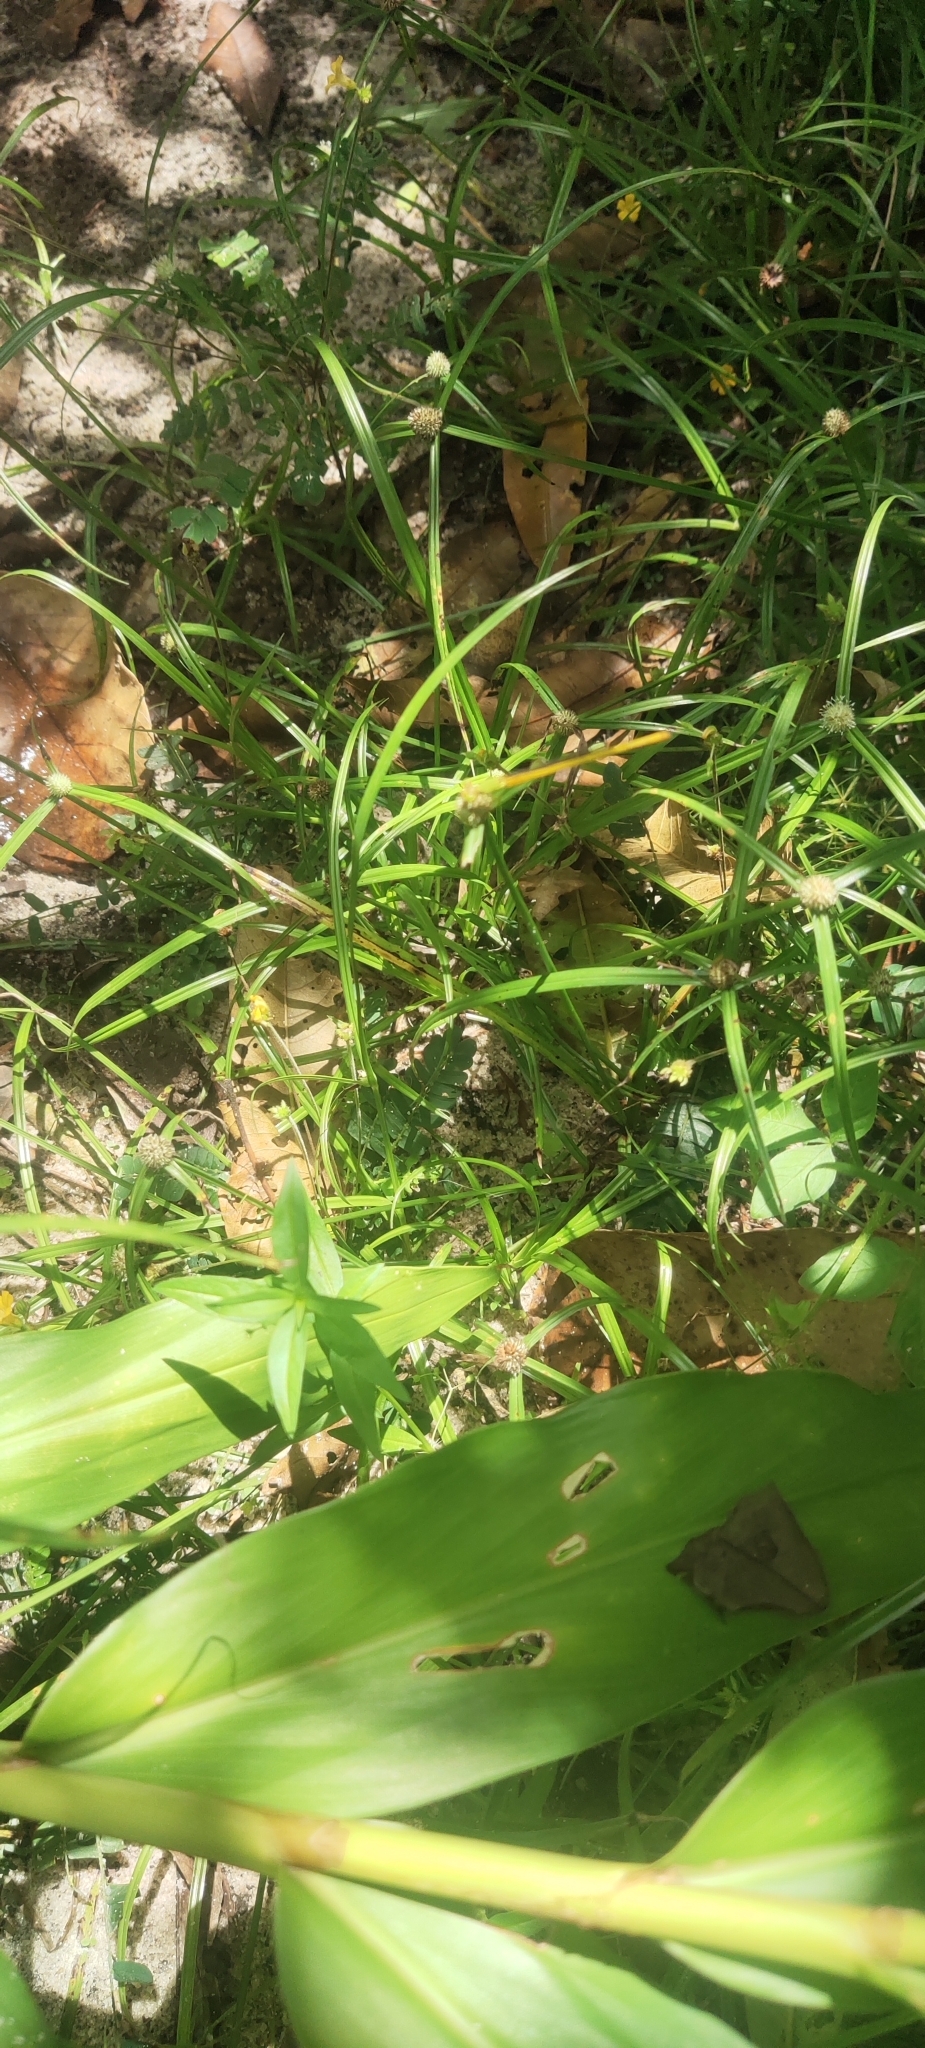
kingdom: Animalia
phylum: Arthropoda
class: Insecta
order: Odonata
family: Coenagrionidae
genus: Ceriagrion
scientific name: Ceriagrion coromandelianum
